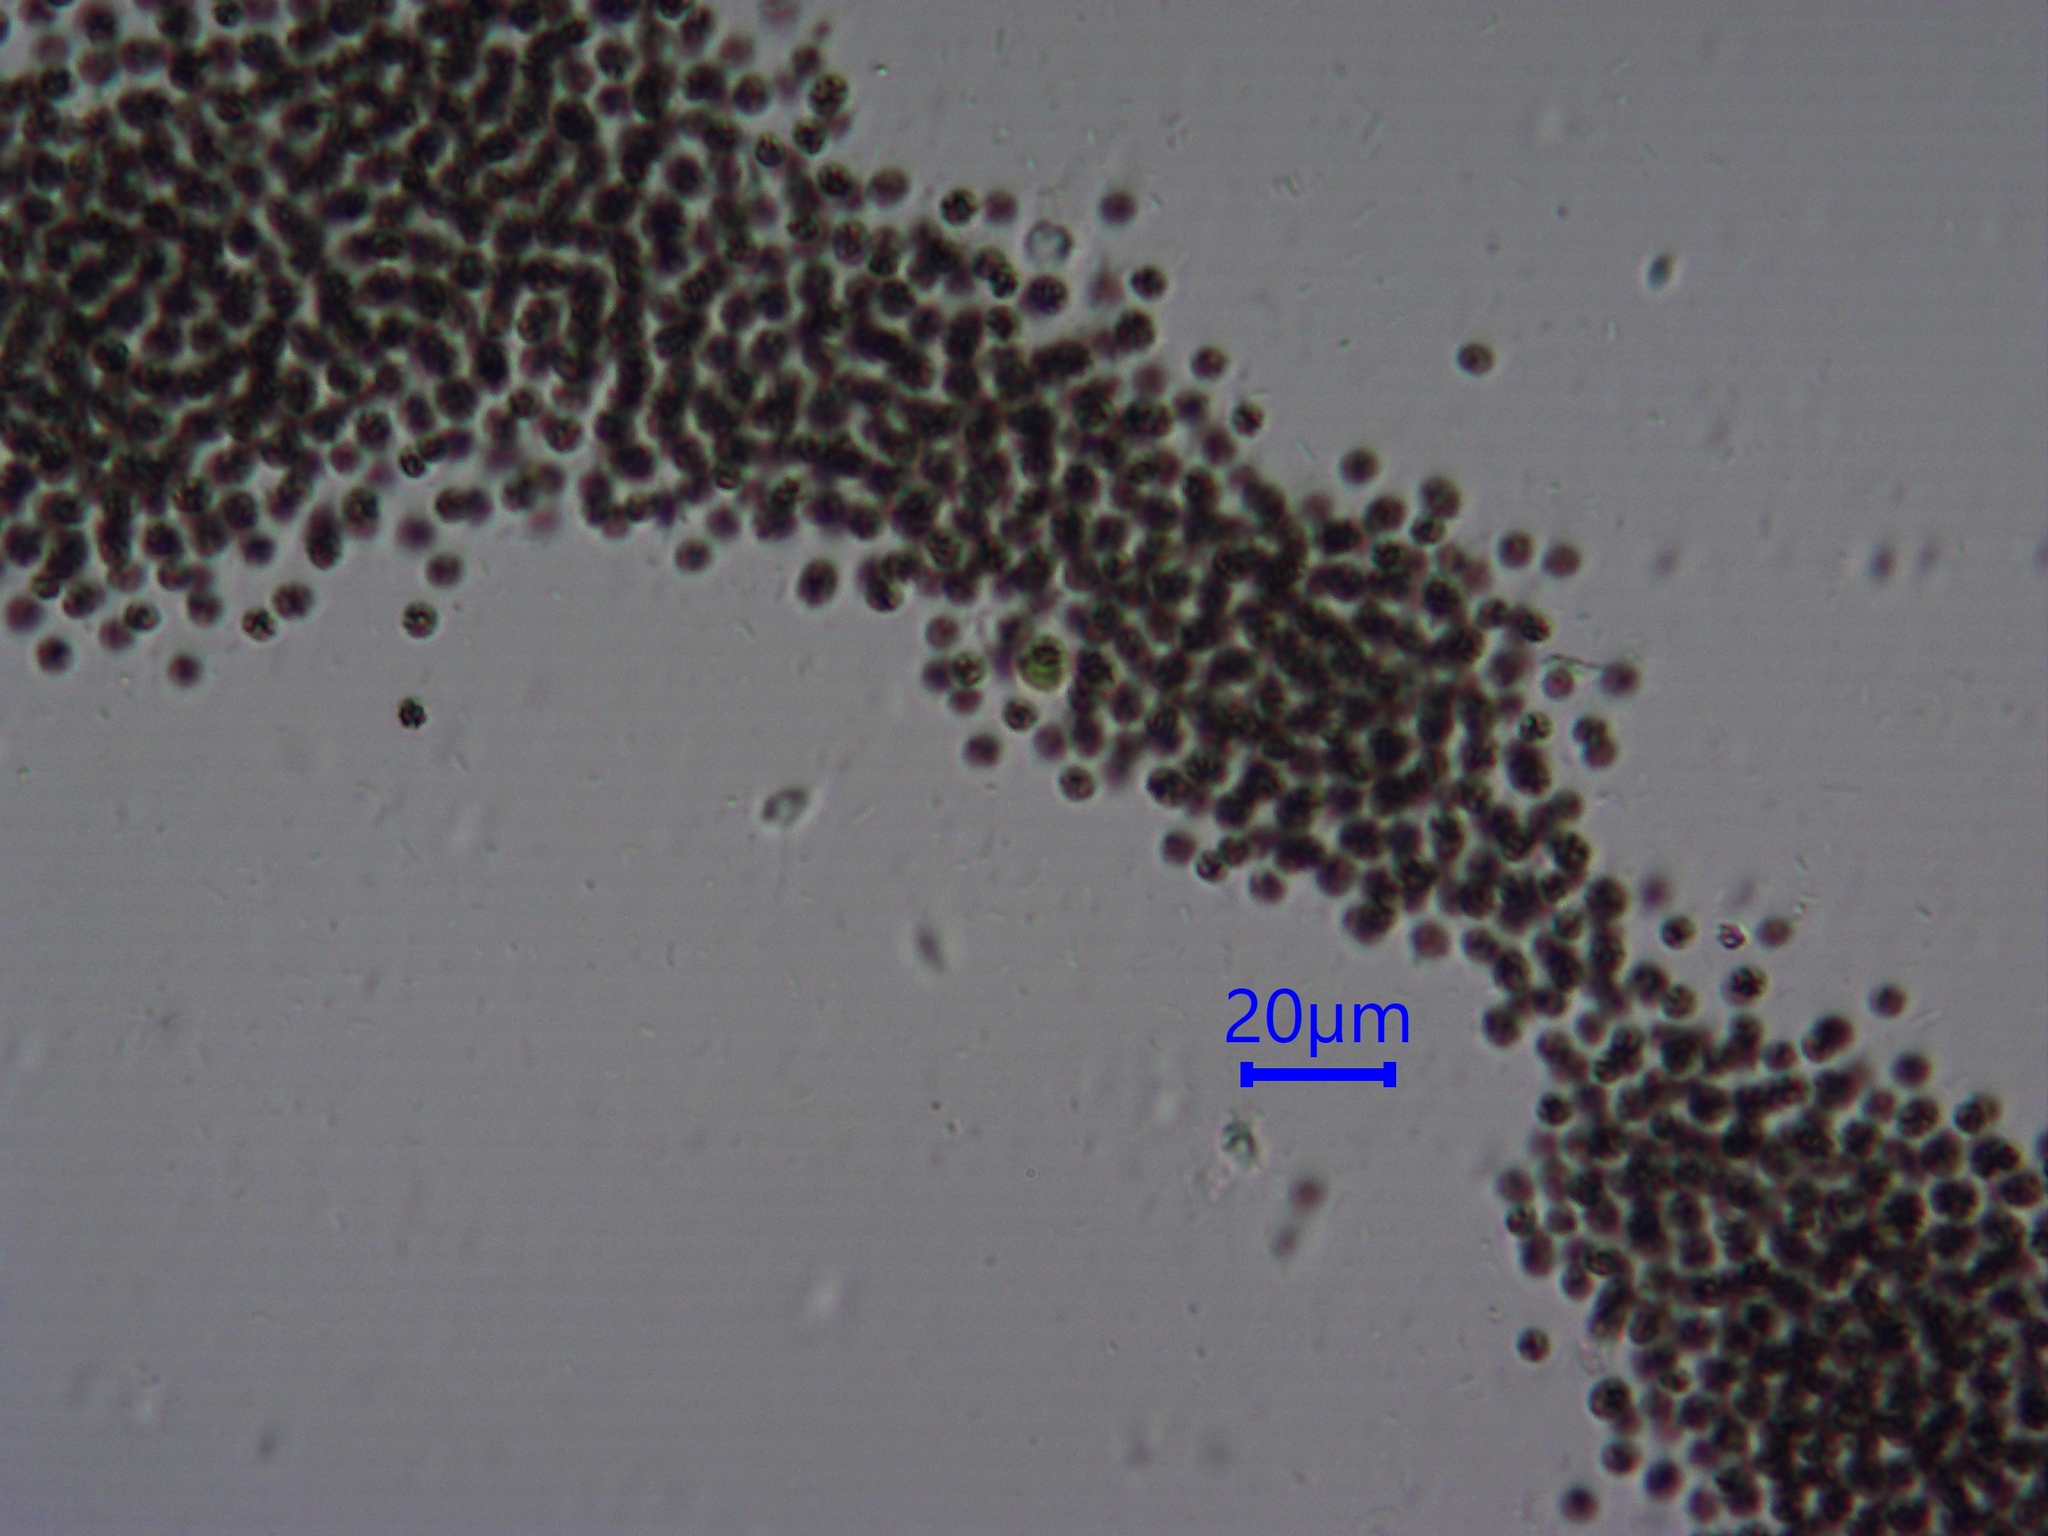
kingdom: Bacteria
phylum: Cyanobacteria
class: Cyanobacteriia
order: Cyanobacteriales
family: Microcystaceae
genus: Microcystis
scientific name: Microcystis aeruginosa
